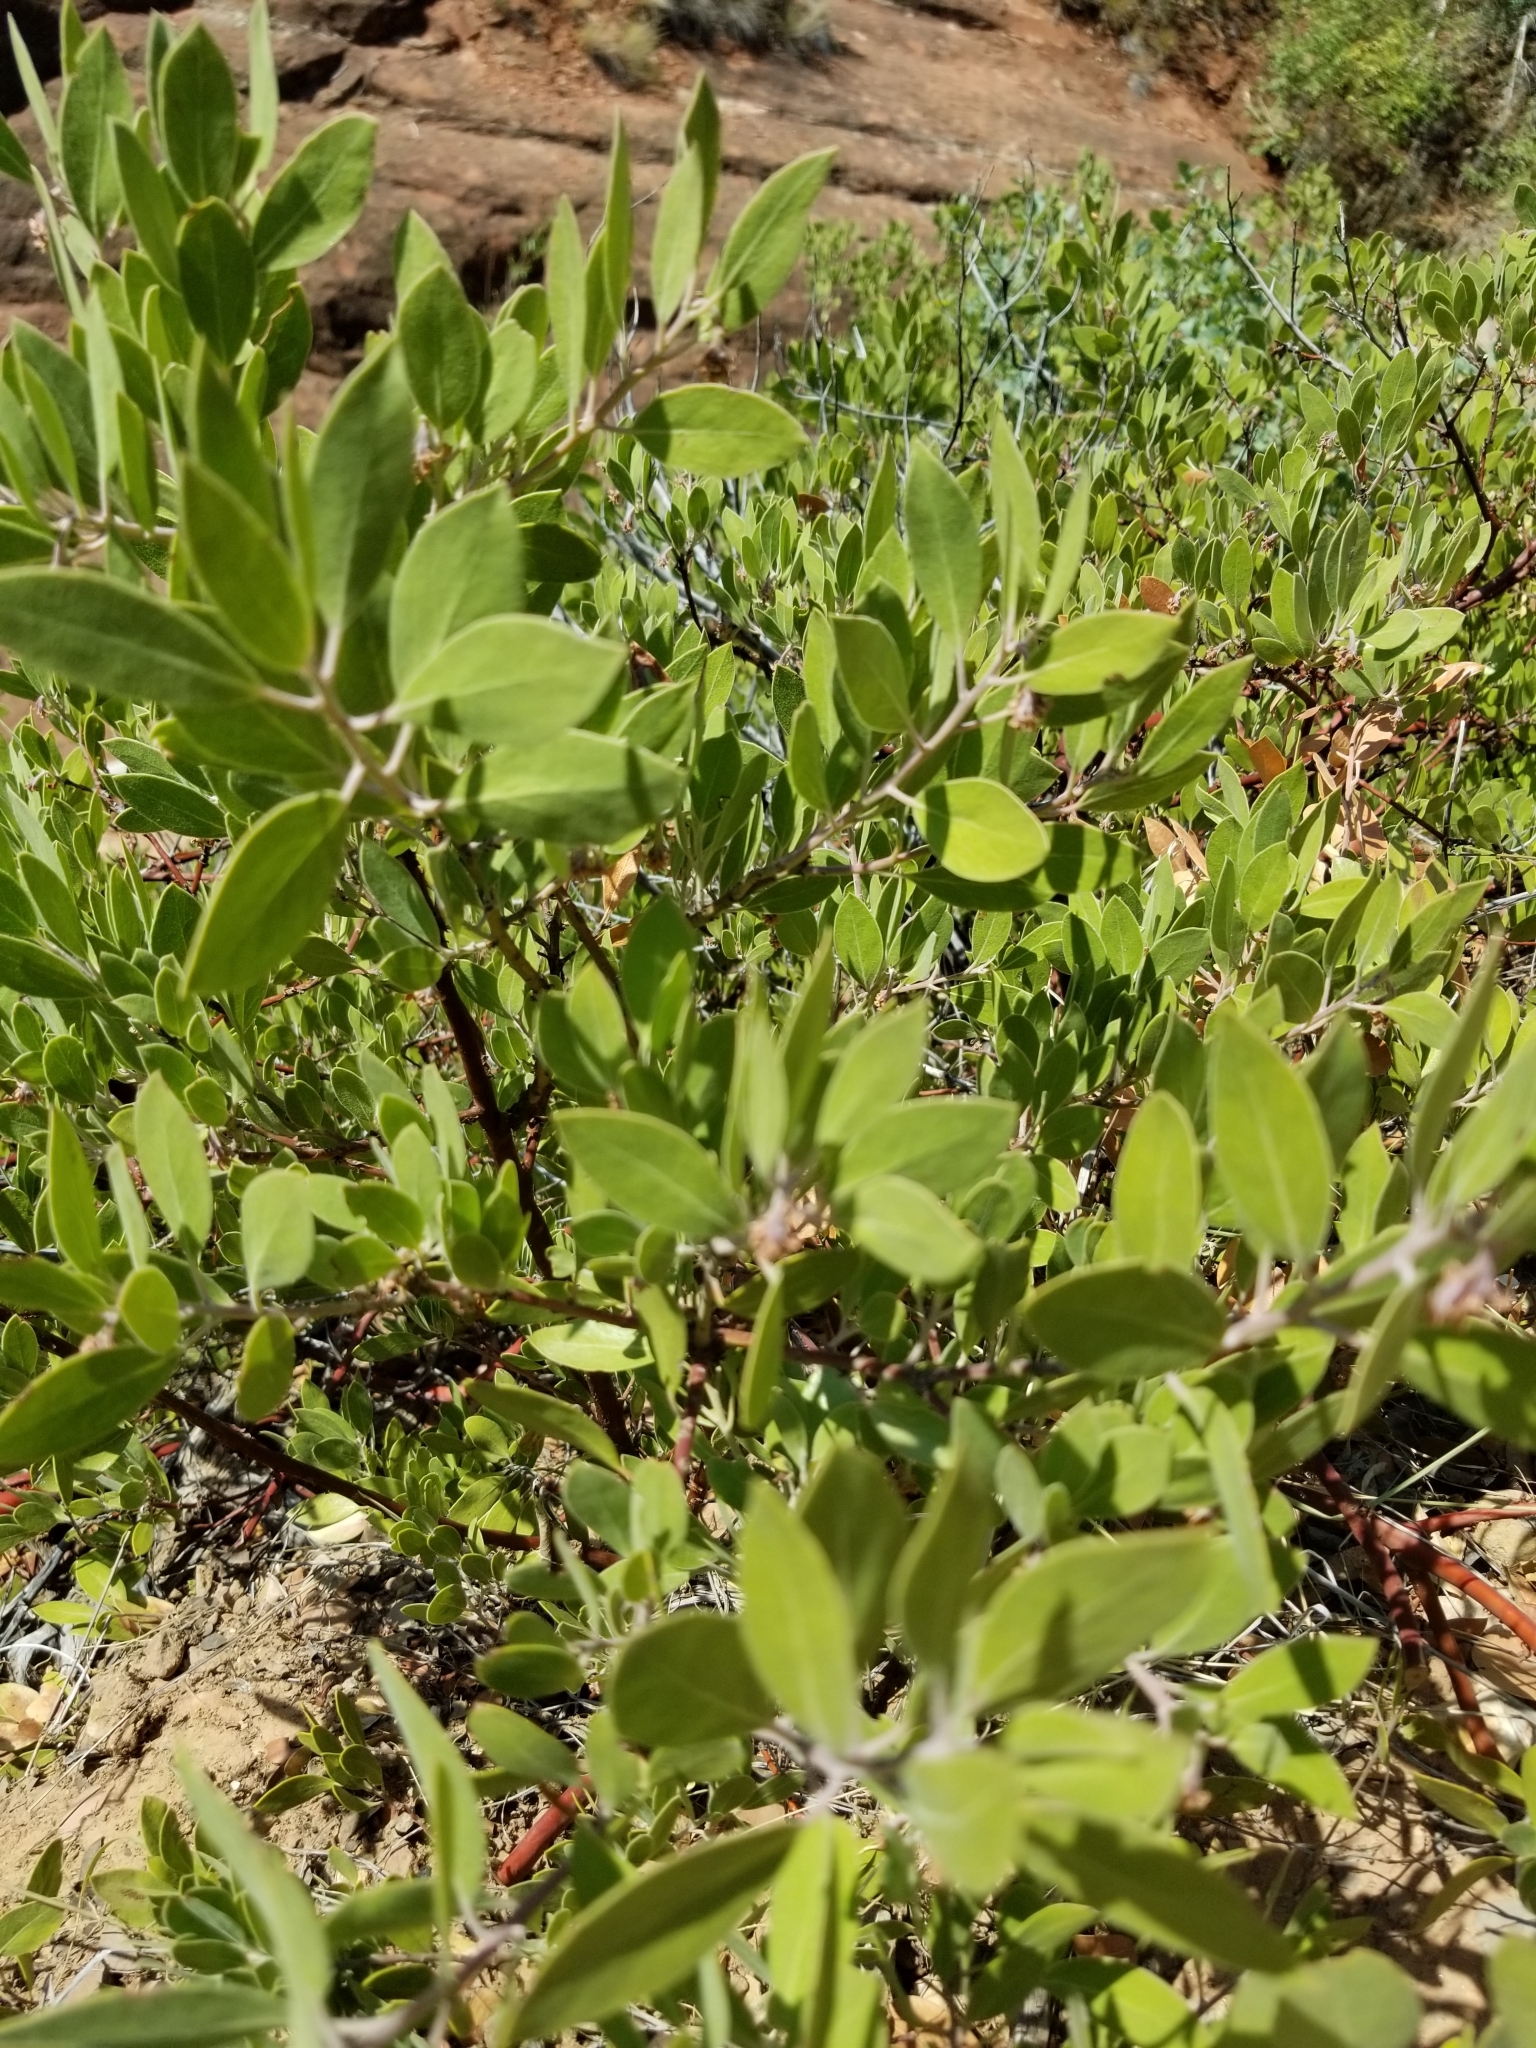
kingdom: Plantae
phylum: Tracheophyta
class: Magnoliopsida
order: Ericales
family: Ericaceae
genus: Arctostaphylos
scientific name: Arctostaphylos pungens
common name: Mexican manzanita
